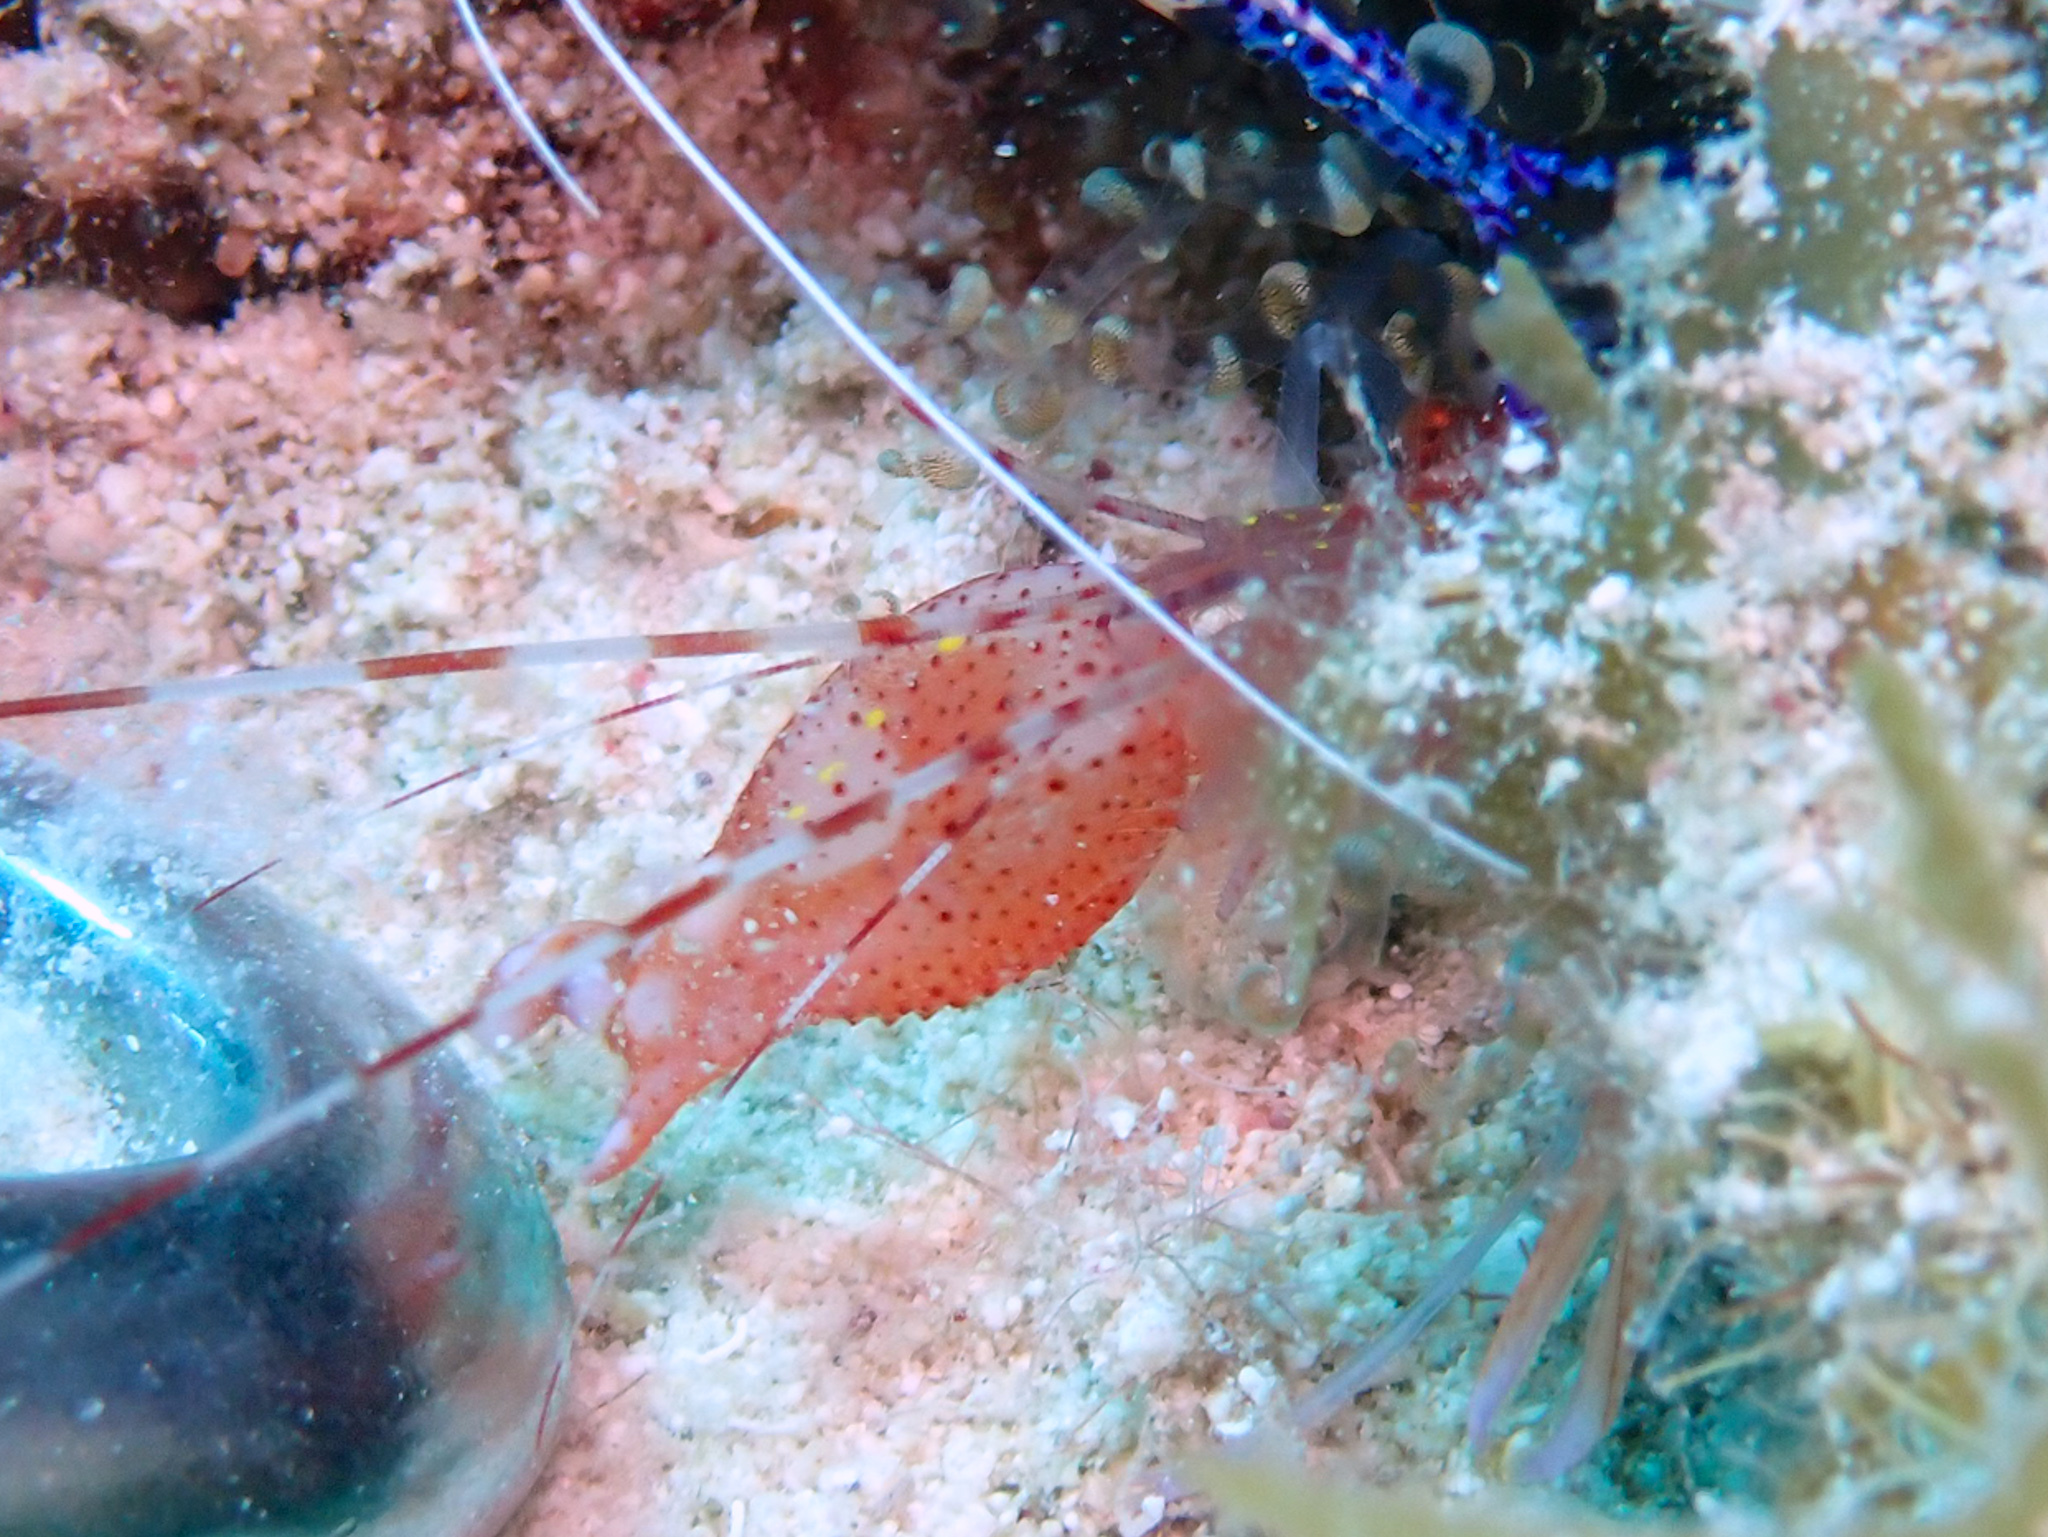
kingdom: Animalia
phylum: Arthropoda
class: Malacostraca
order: Decapoda
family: Alpheidae
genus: Alpheus
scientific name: Alpheus armatus
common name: Brown snapping shrimp
